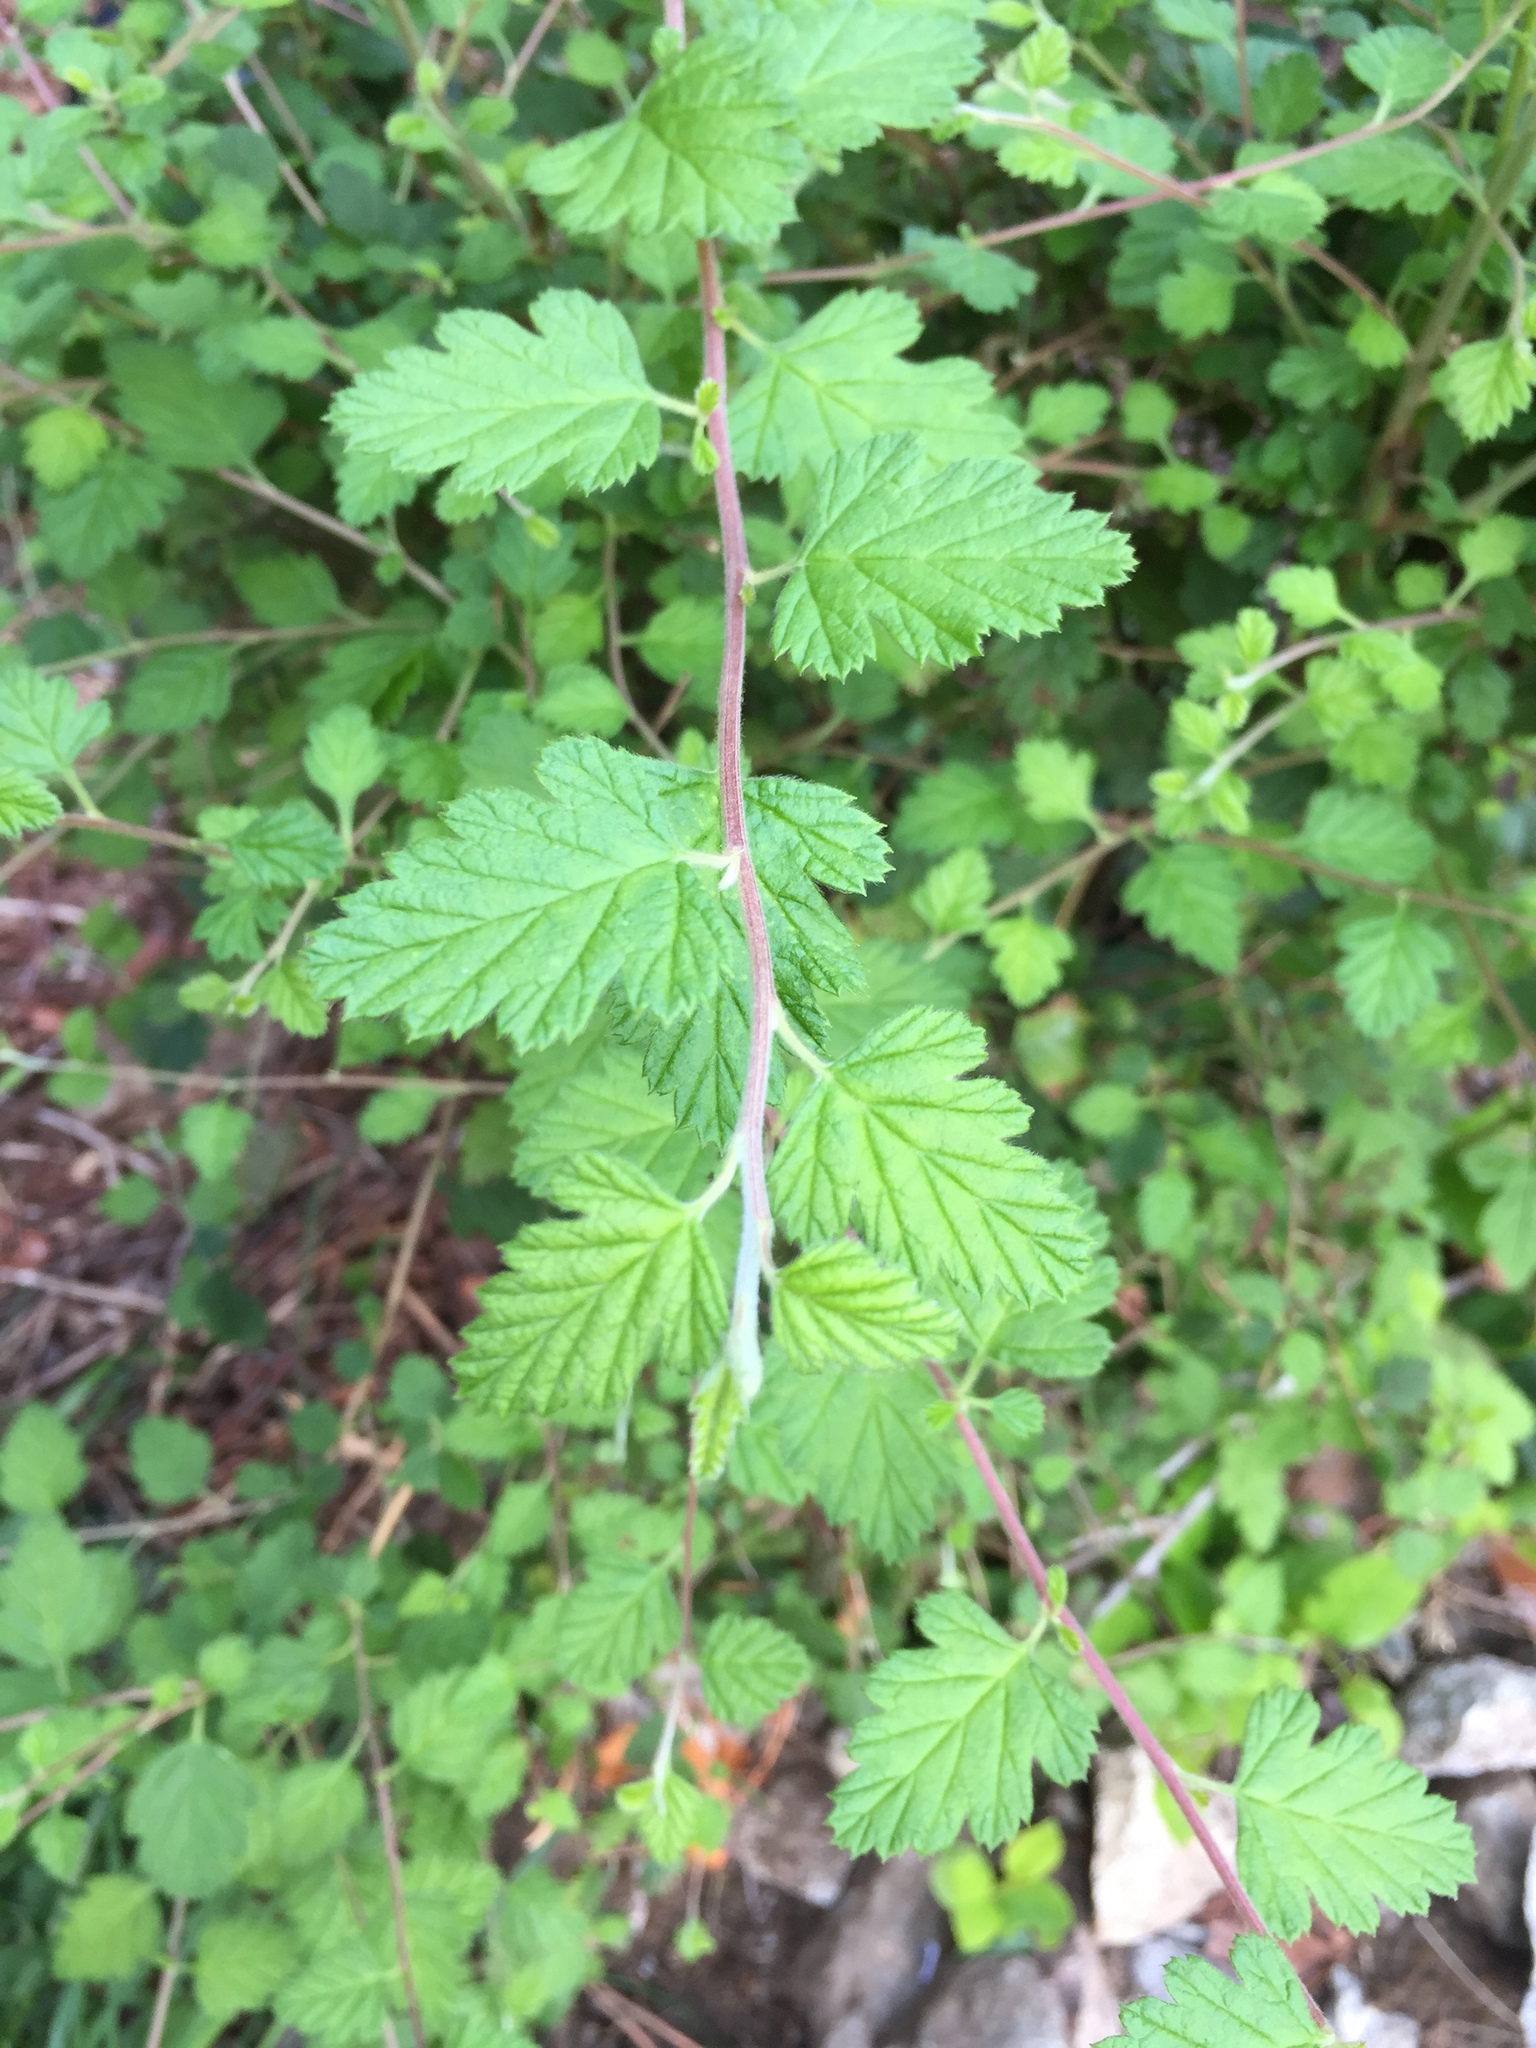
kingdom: Plantae
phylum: Tracheophyta
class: Magnoliopsida
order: Rosales
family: Rosaceae
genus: Holodiscus
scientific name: Holodiscus discolor
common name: Oceanspray
